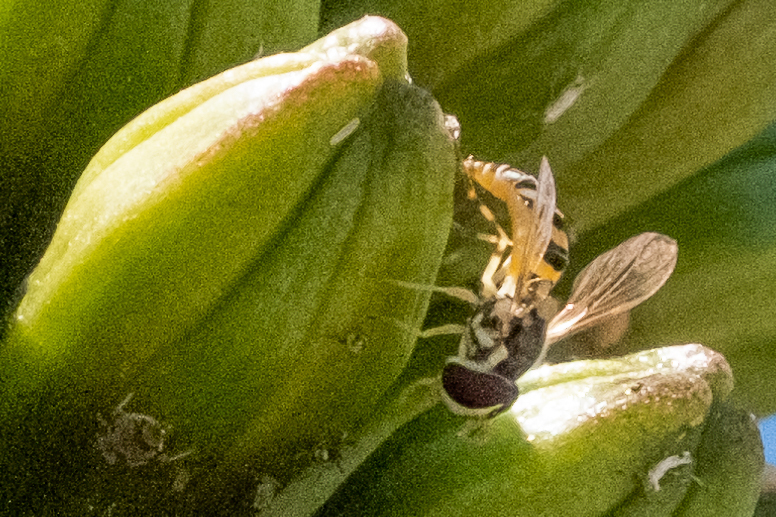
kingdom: Animalia
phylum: Arthropoda
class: Insecta
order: Diptera
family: Syrphidae
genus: Allograpta
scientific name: Allograpta exotica
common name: Syrphid fly
